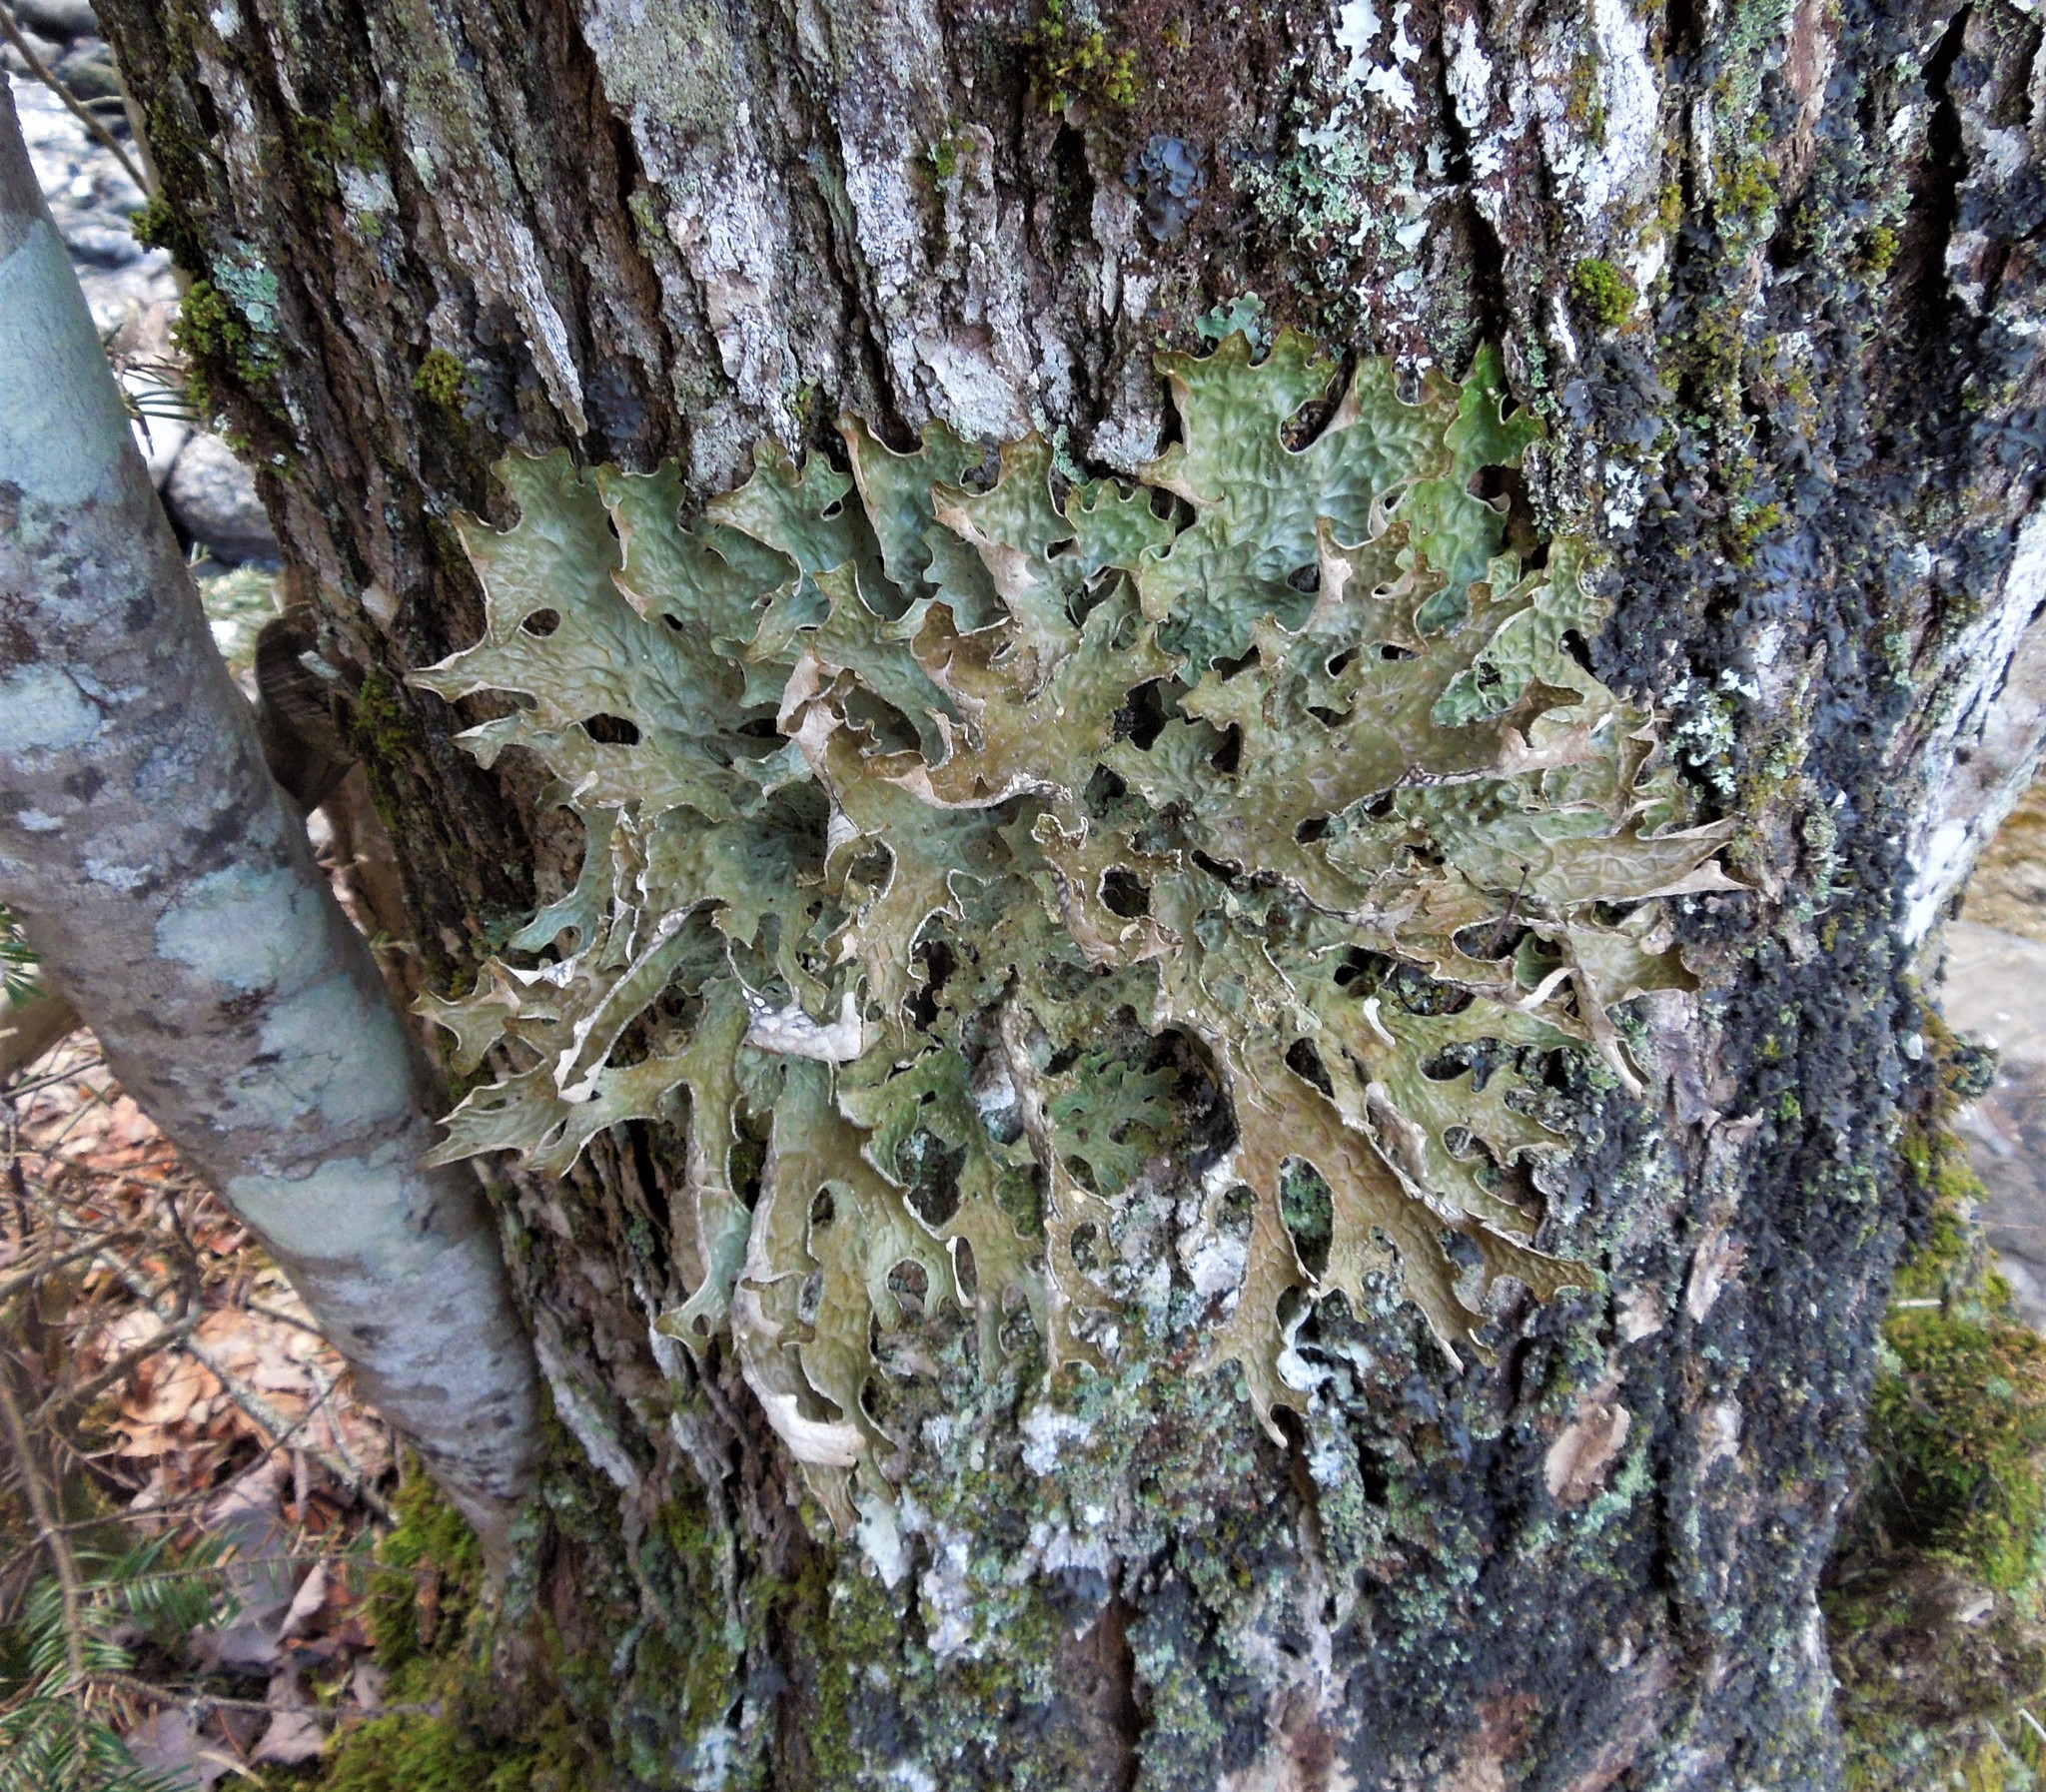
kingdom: Fungi
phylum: Ascomycota
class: Lecanoromycetes
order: Peltigerales
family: Lobariaceae
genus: Lobaria
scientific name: Lobaria pulmonaria
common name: Lungwort
